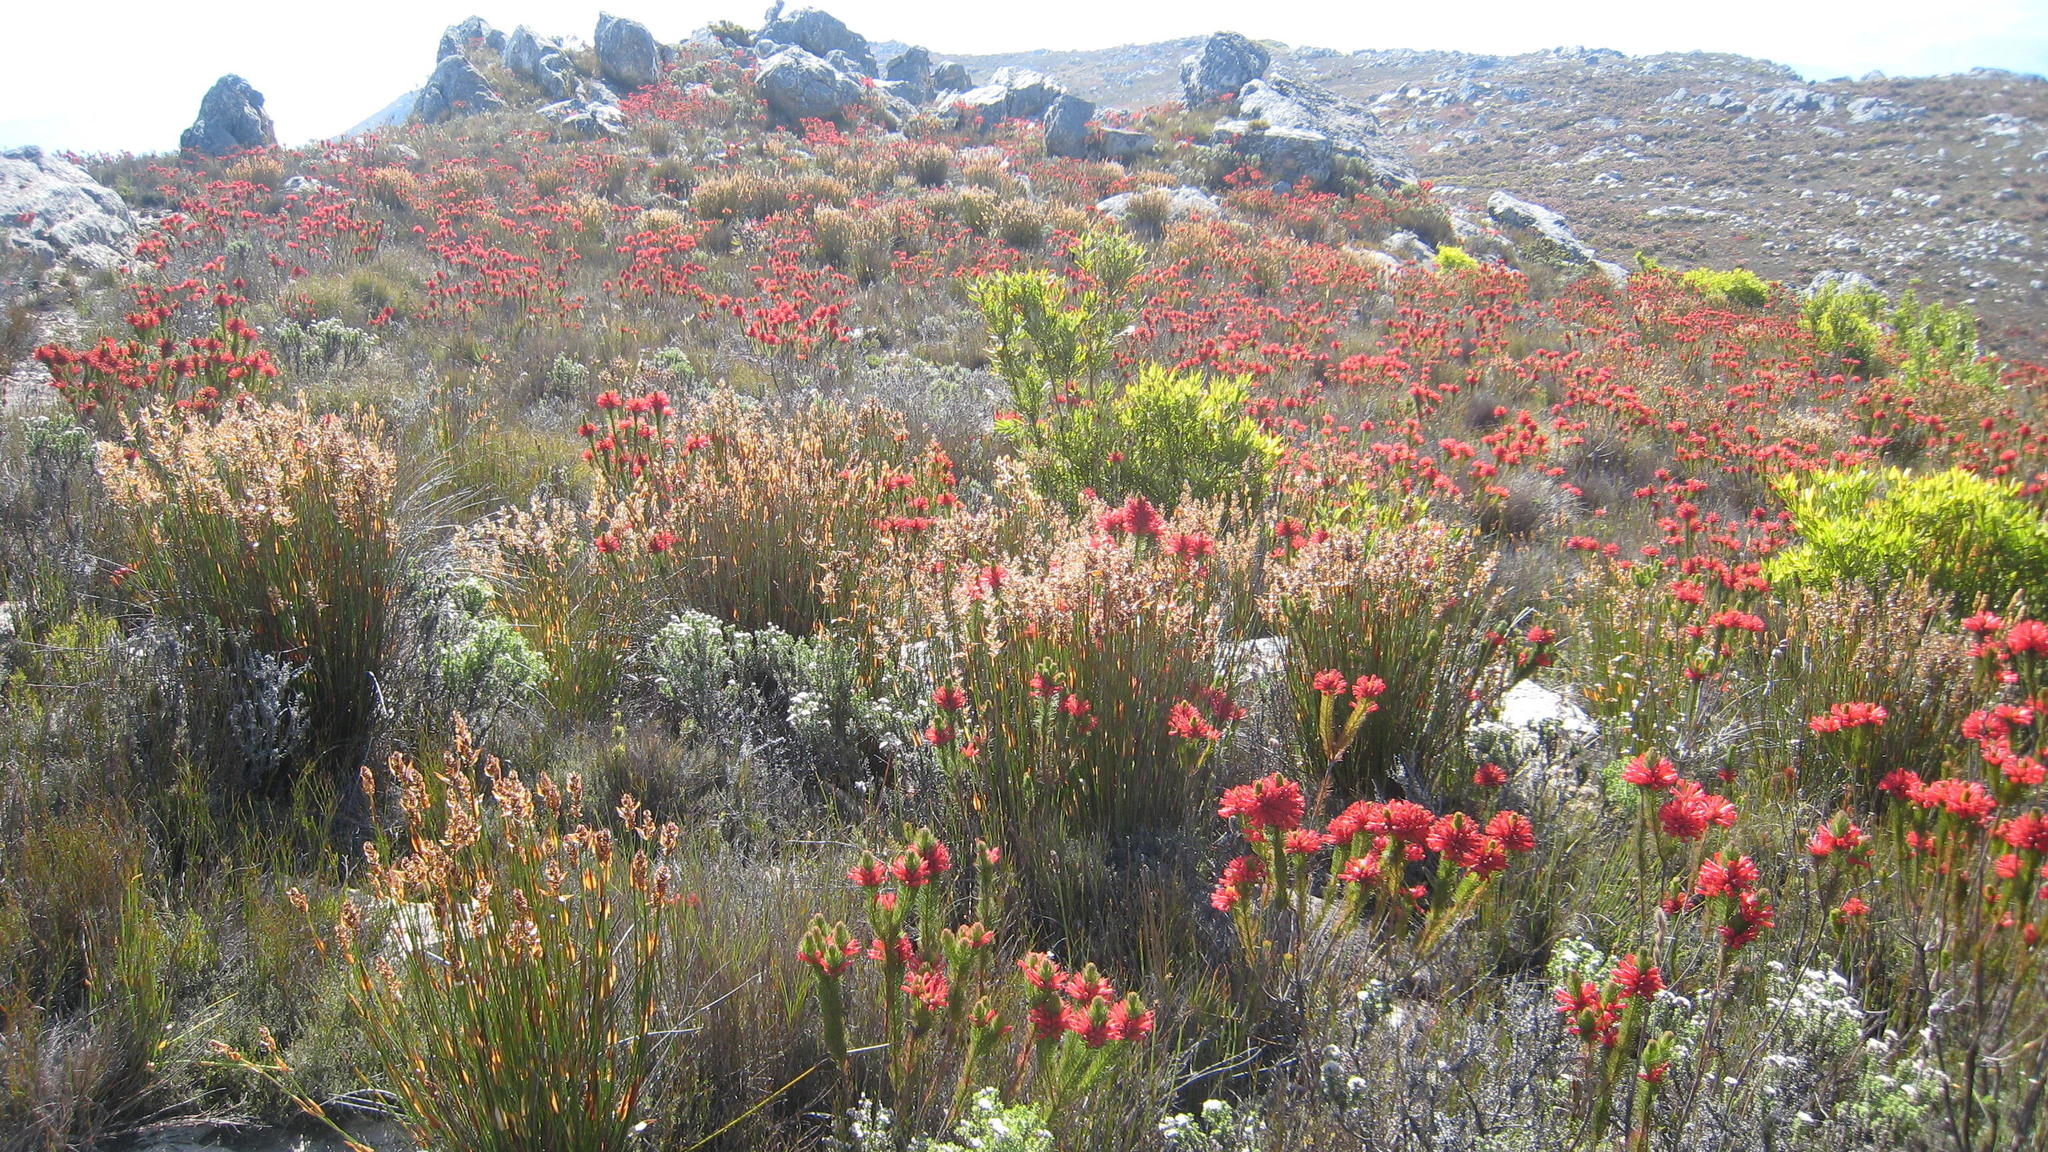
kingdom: Plantae
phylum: Tracheophyta
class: Magnoliopsida
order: Ericales
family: Ericaceae
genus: Erica
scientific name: Erica vestita
